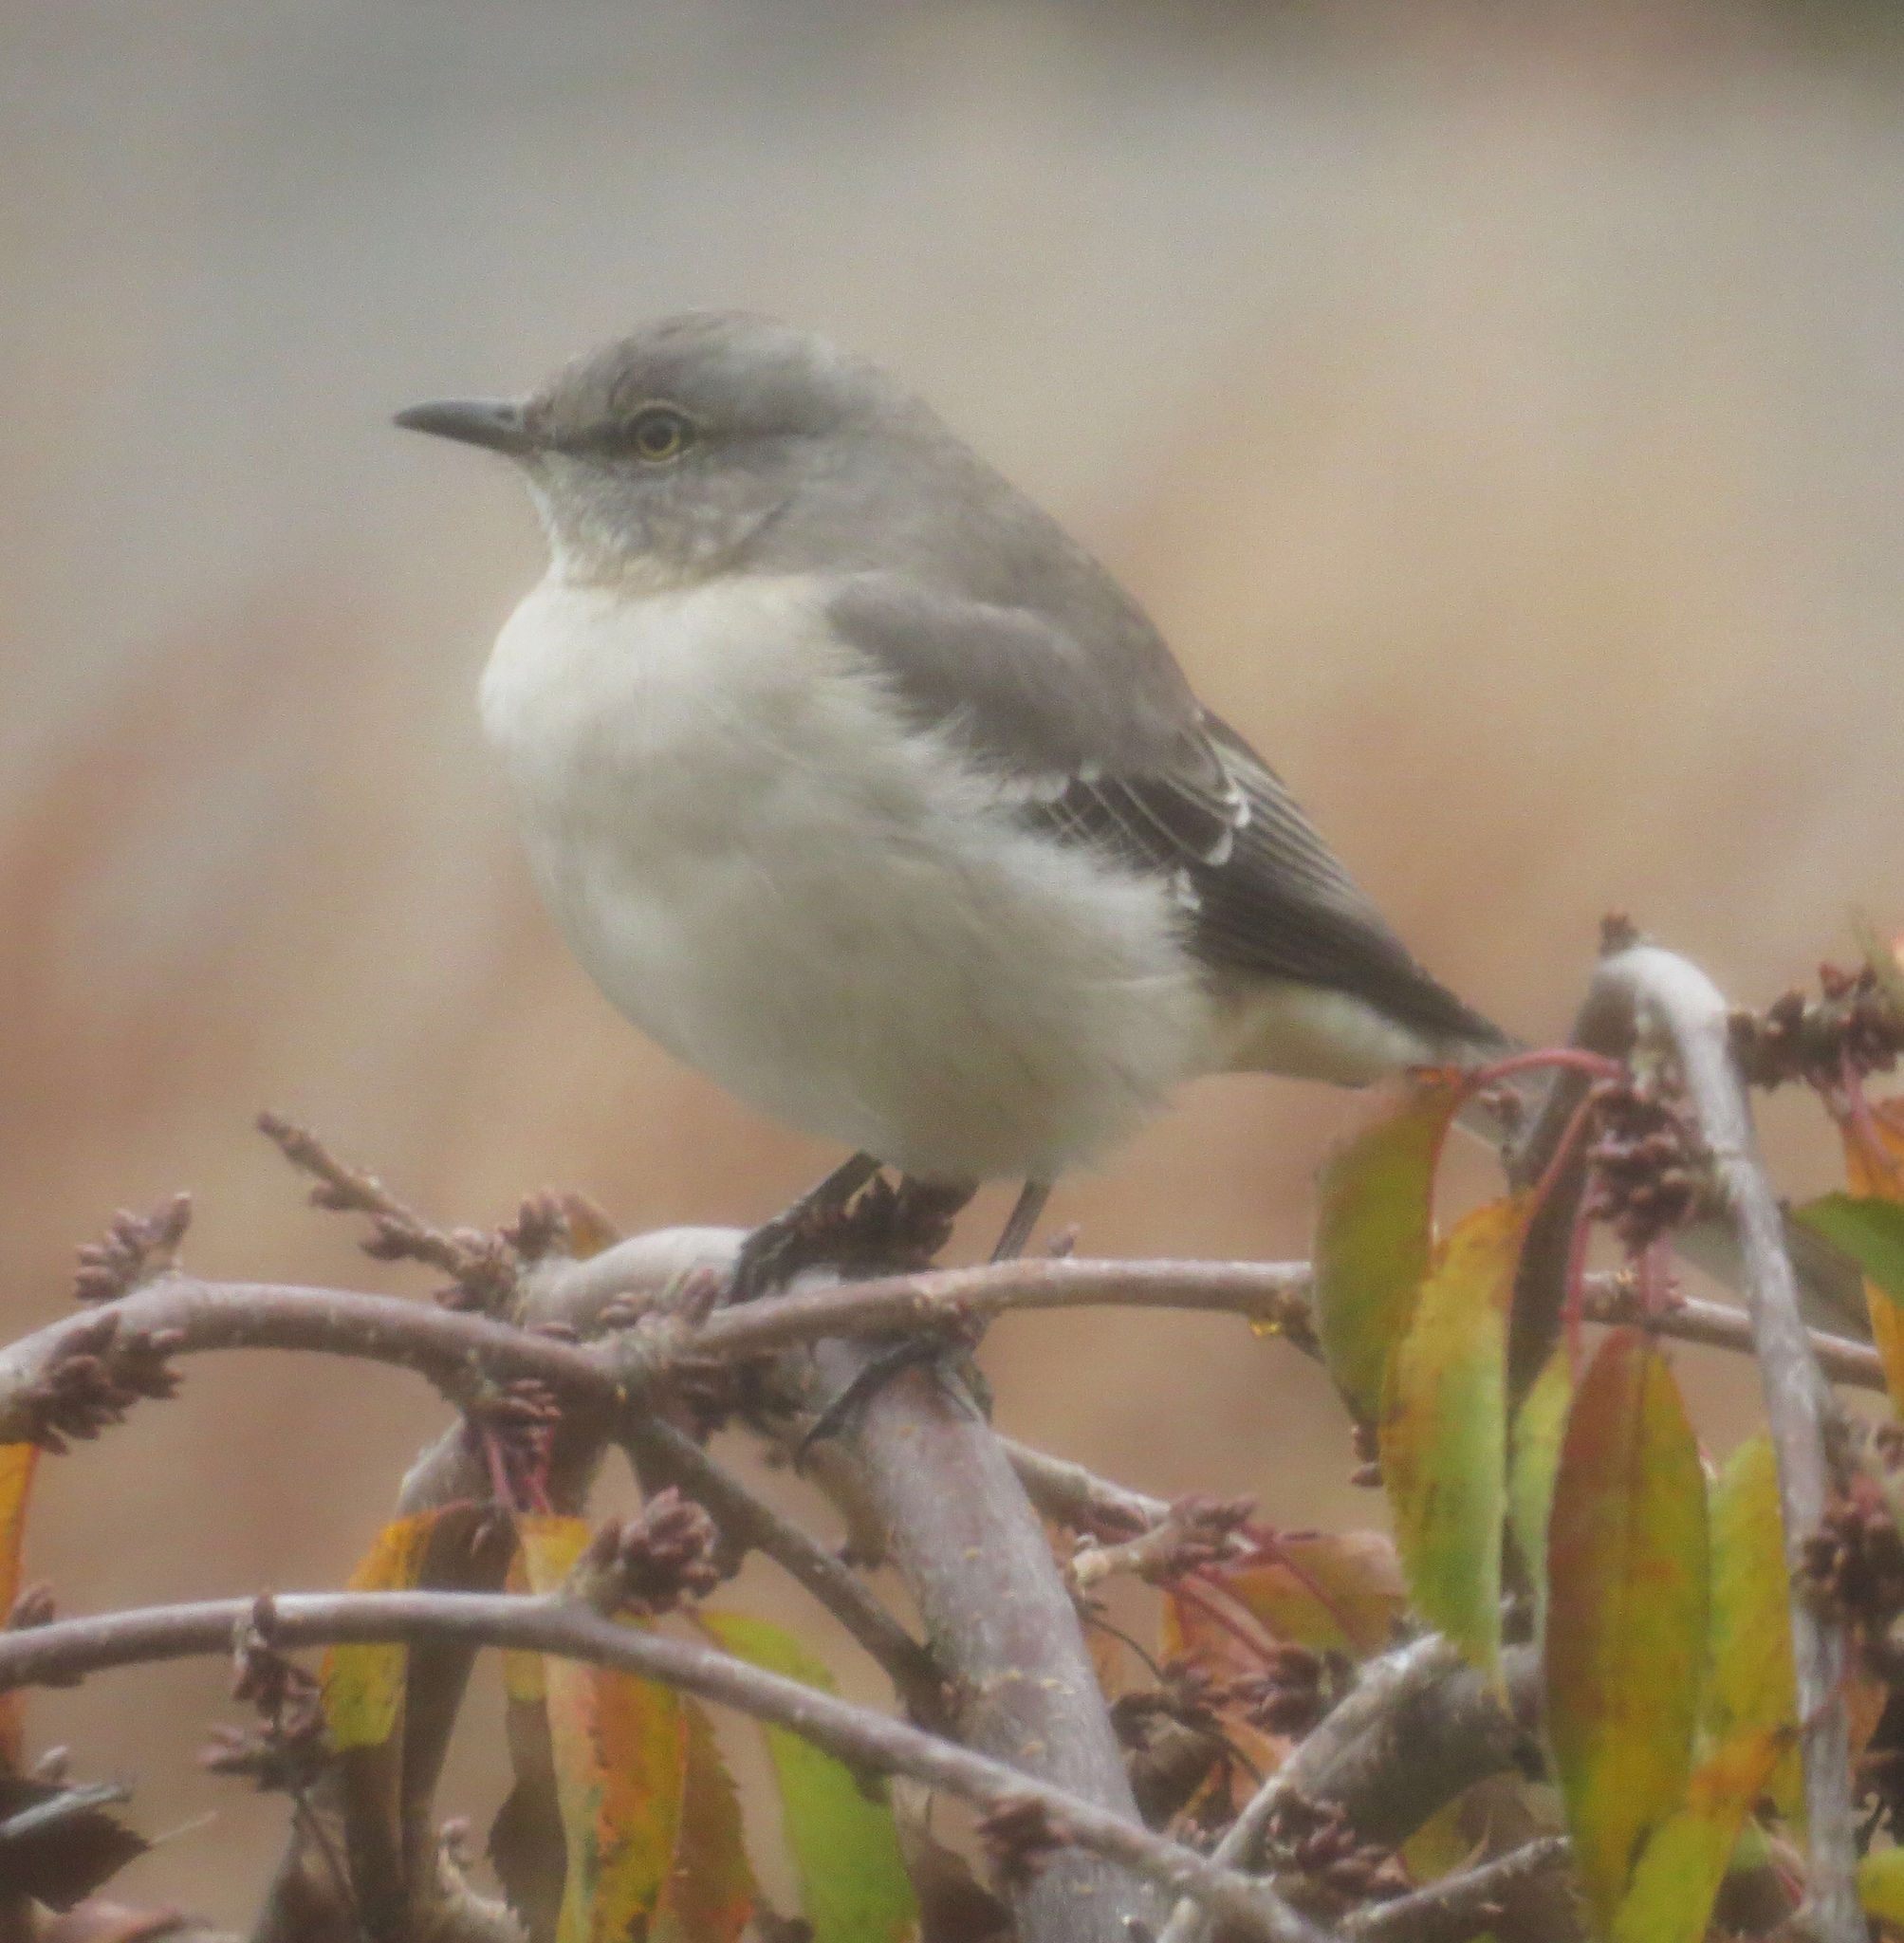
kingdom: Animalia
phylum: Chordata
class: Aves
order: Passeriformes
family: Mimidae
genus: Mimus
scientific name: Mimus polyglottos
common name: Northern mockingbird
